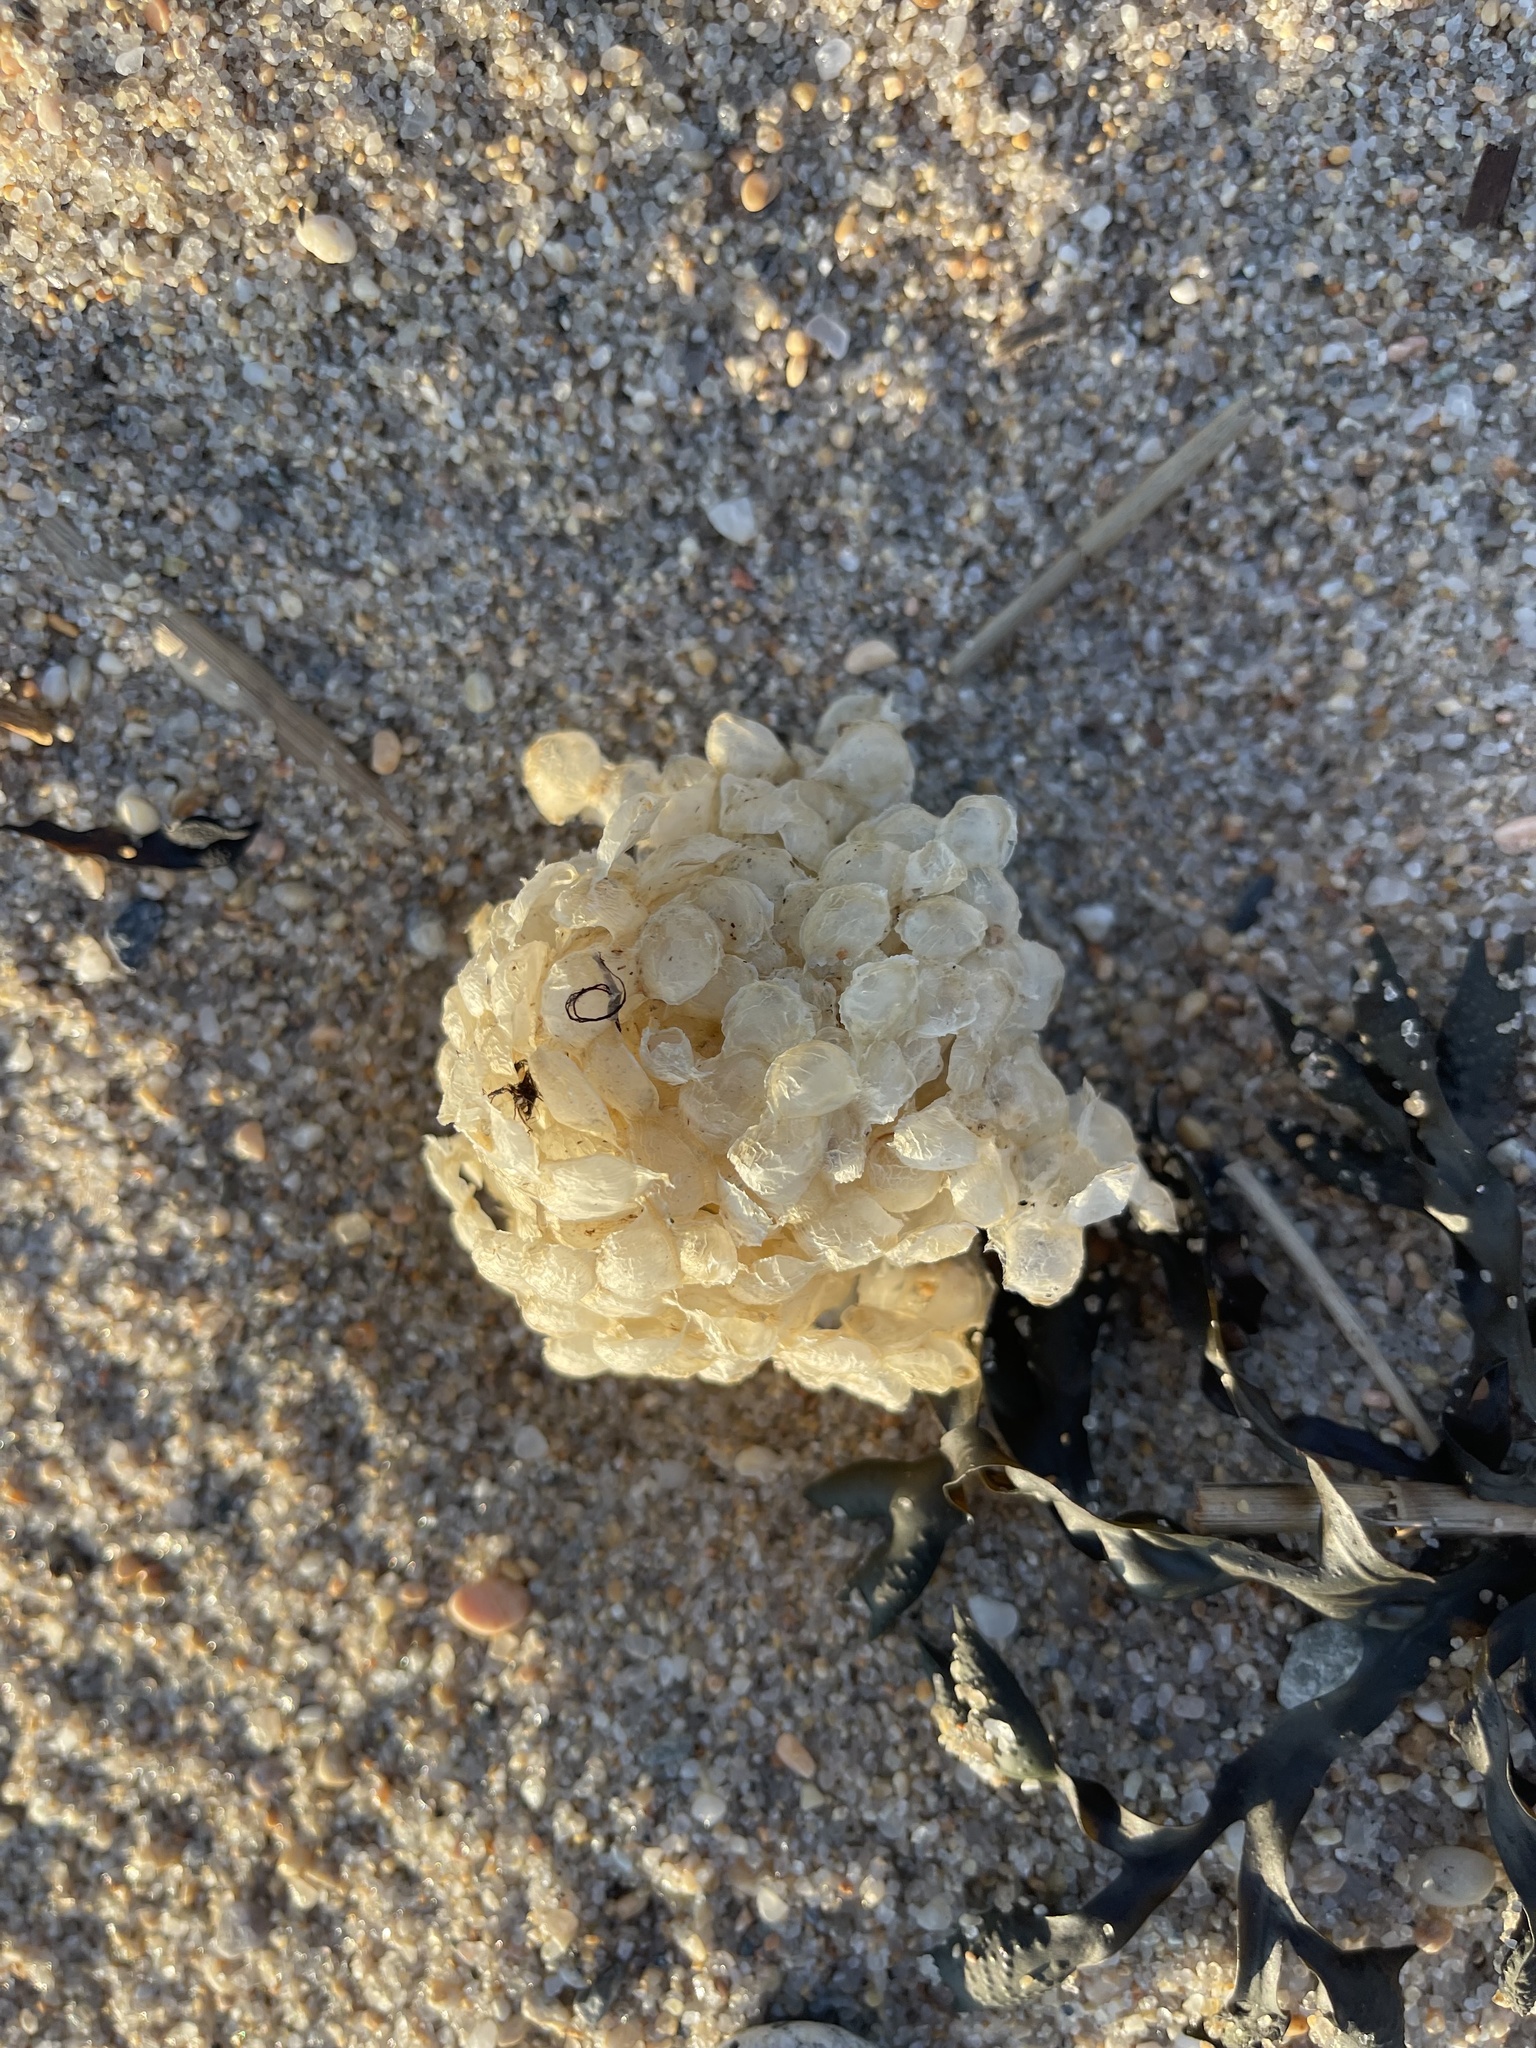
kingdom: Animalia
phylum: Mollusca
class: Gastropoda
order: Neogastropoda
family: Buccinidae
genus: Buccinum
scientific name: Buccinum undatum
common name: Common whelk
